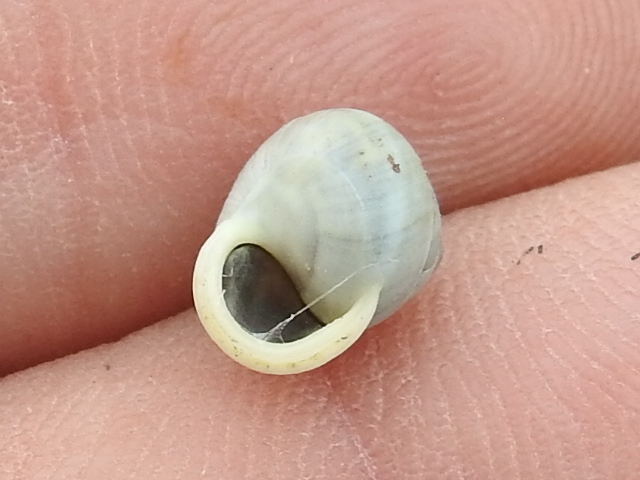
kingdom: Animalia
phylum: Mollusca
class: Gastropoda
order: Cycloneritida
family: Helicinidae
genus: Helicina
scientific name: Helicina orbiculata
